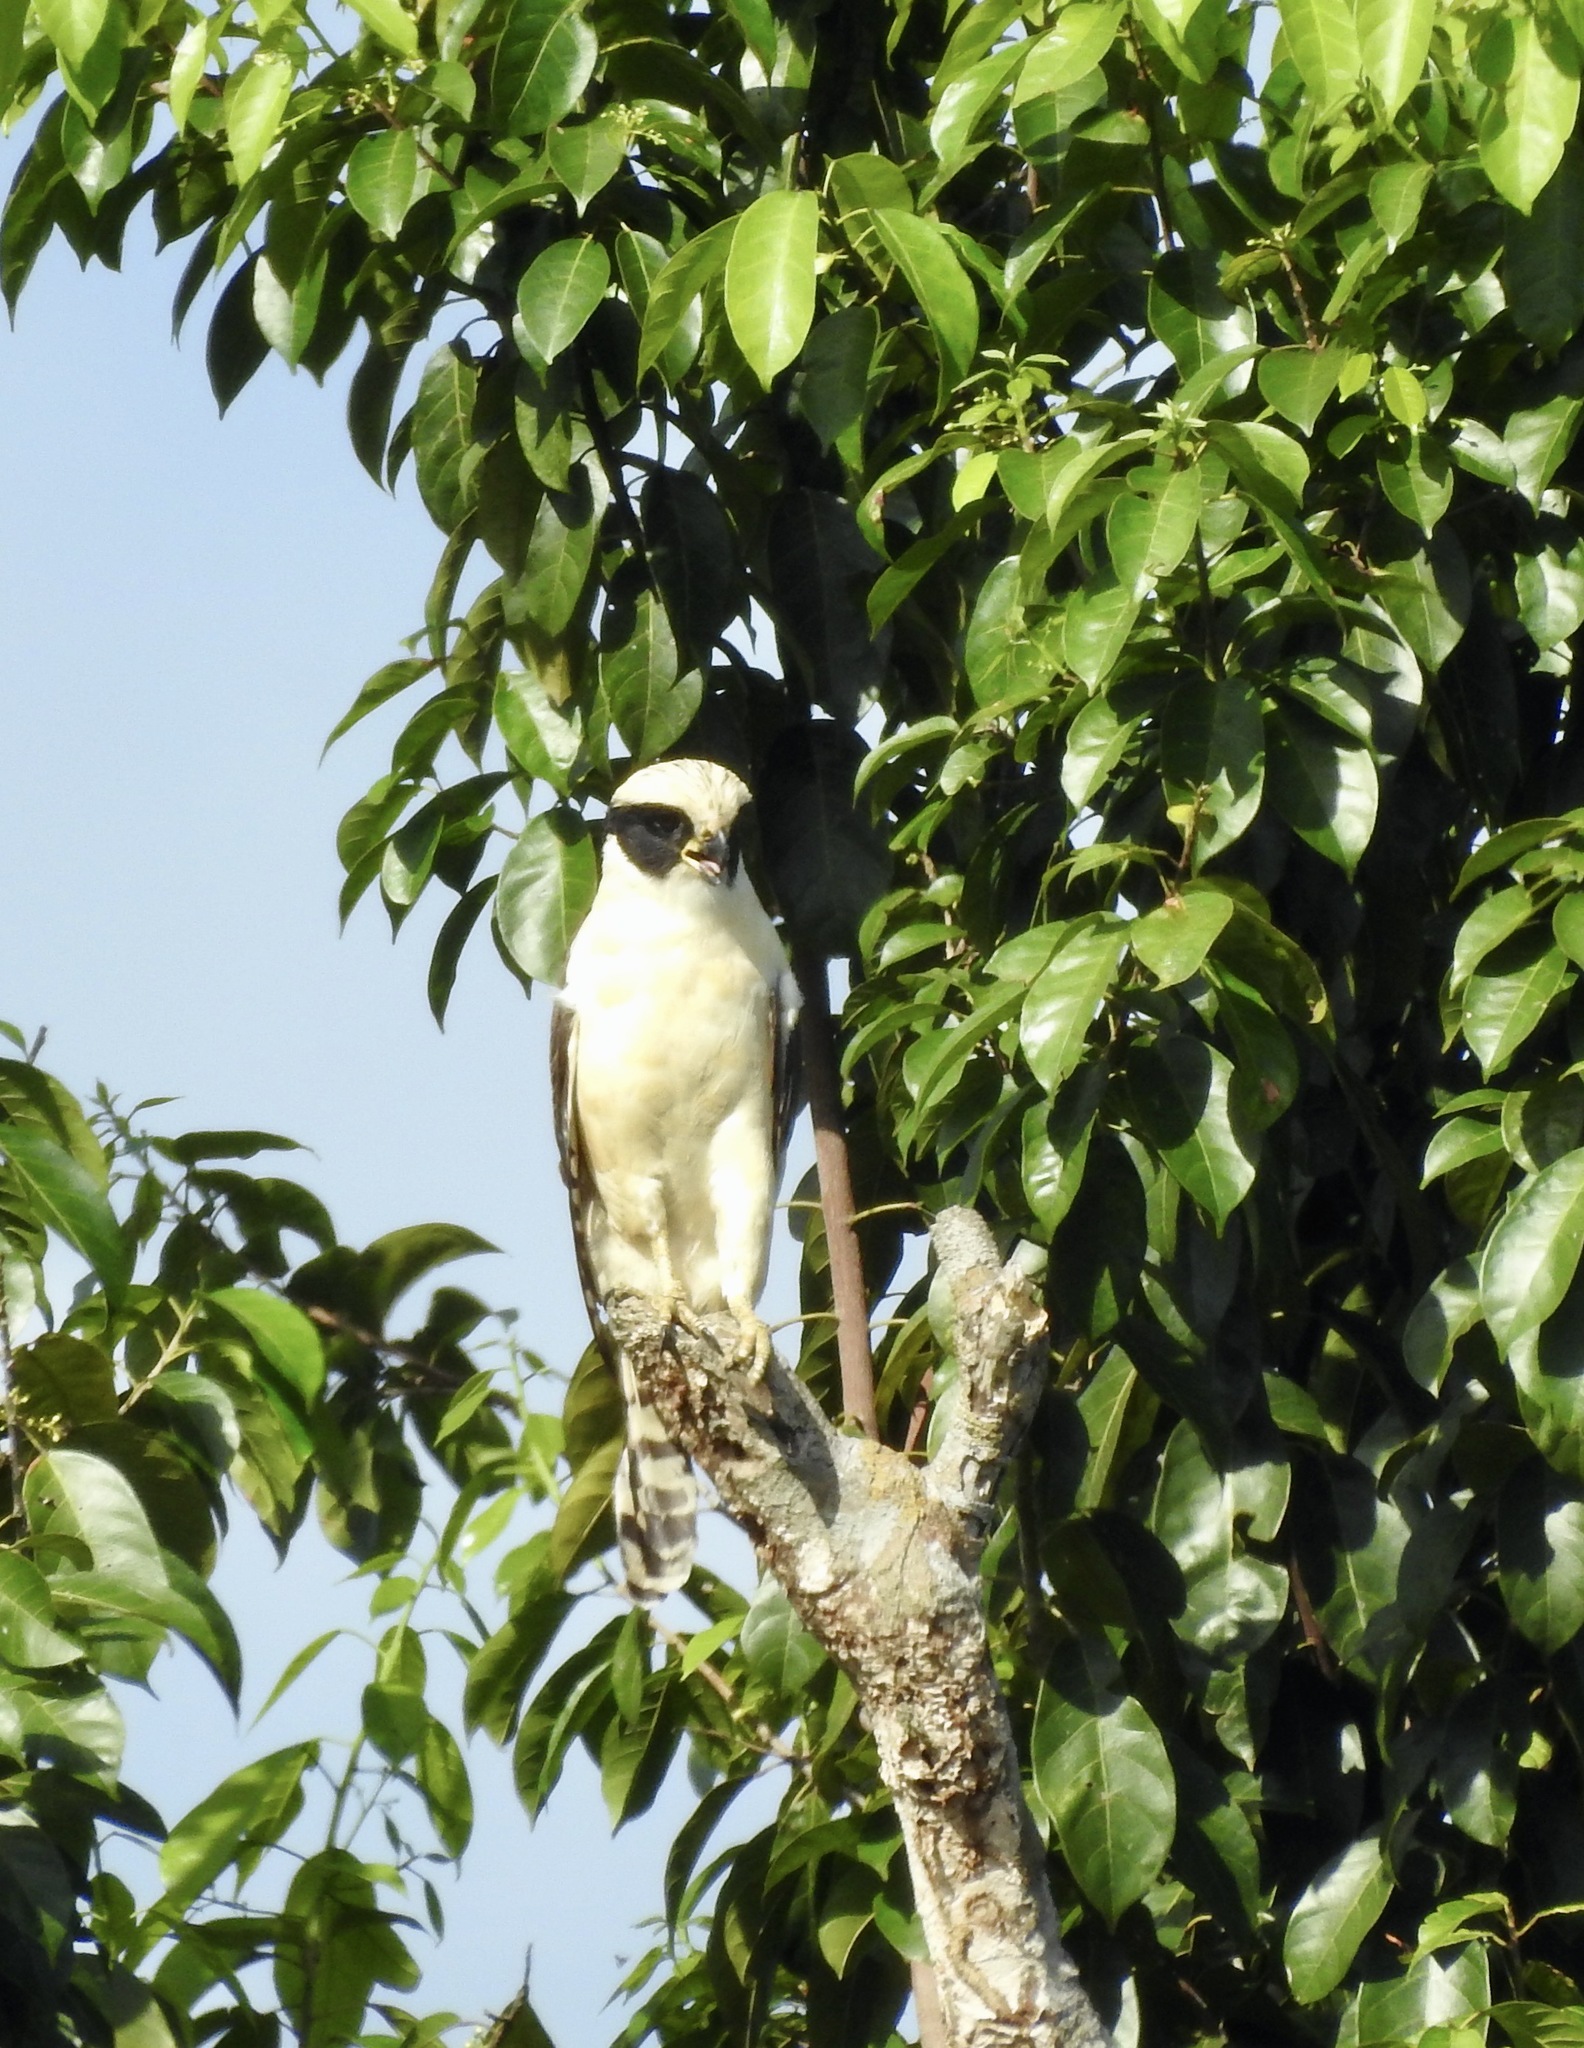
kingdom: Animalia
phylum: Chordata
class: Aves
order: Falconiformes
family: Falconidae
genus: Herpetotheres
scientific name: Herpetotheres cachinnans
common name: Laughing falcon
